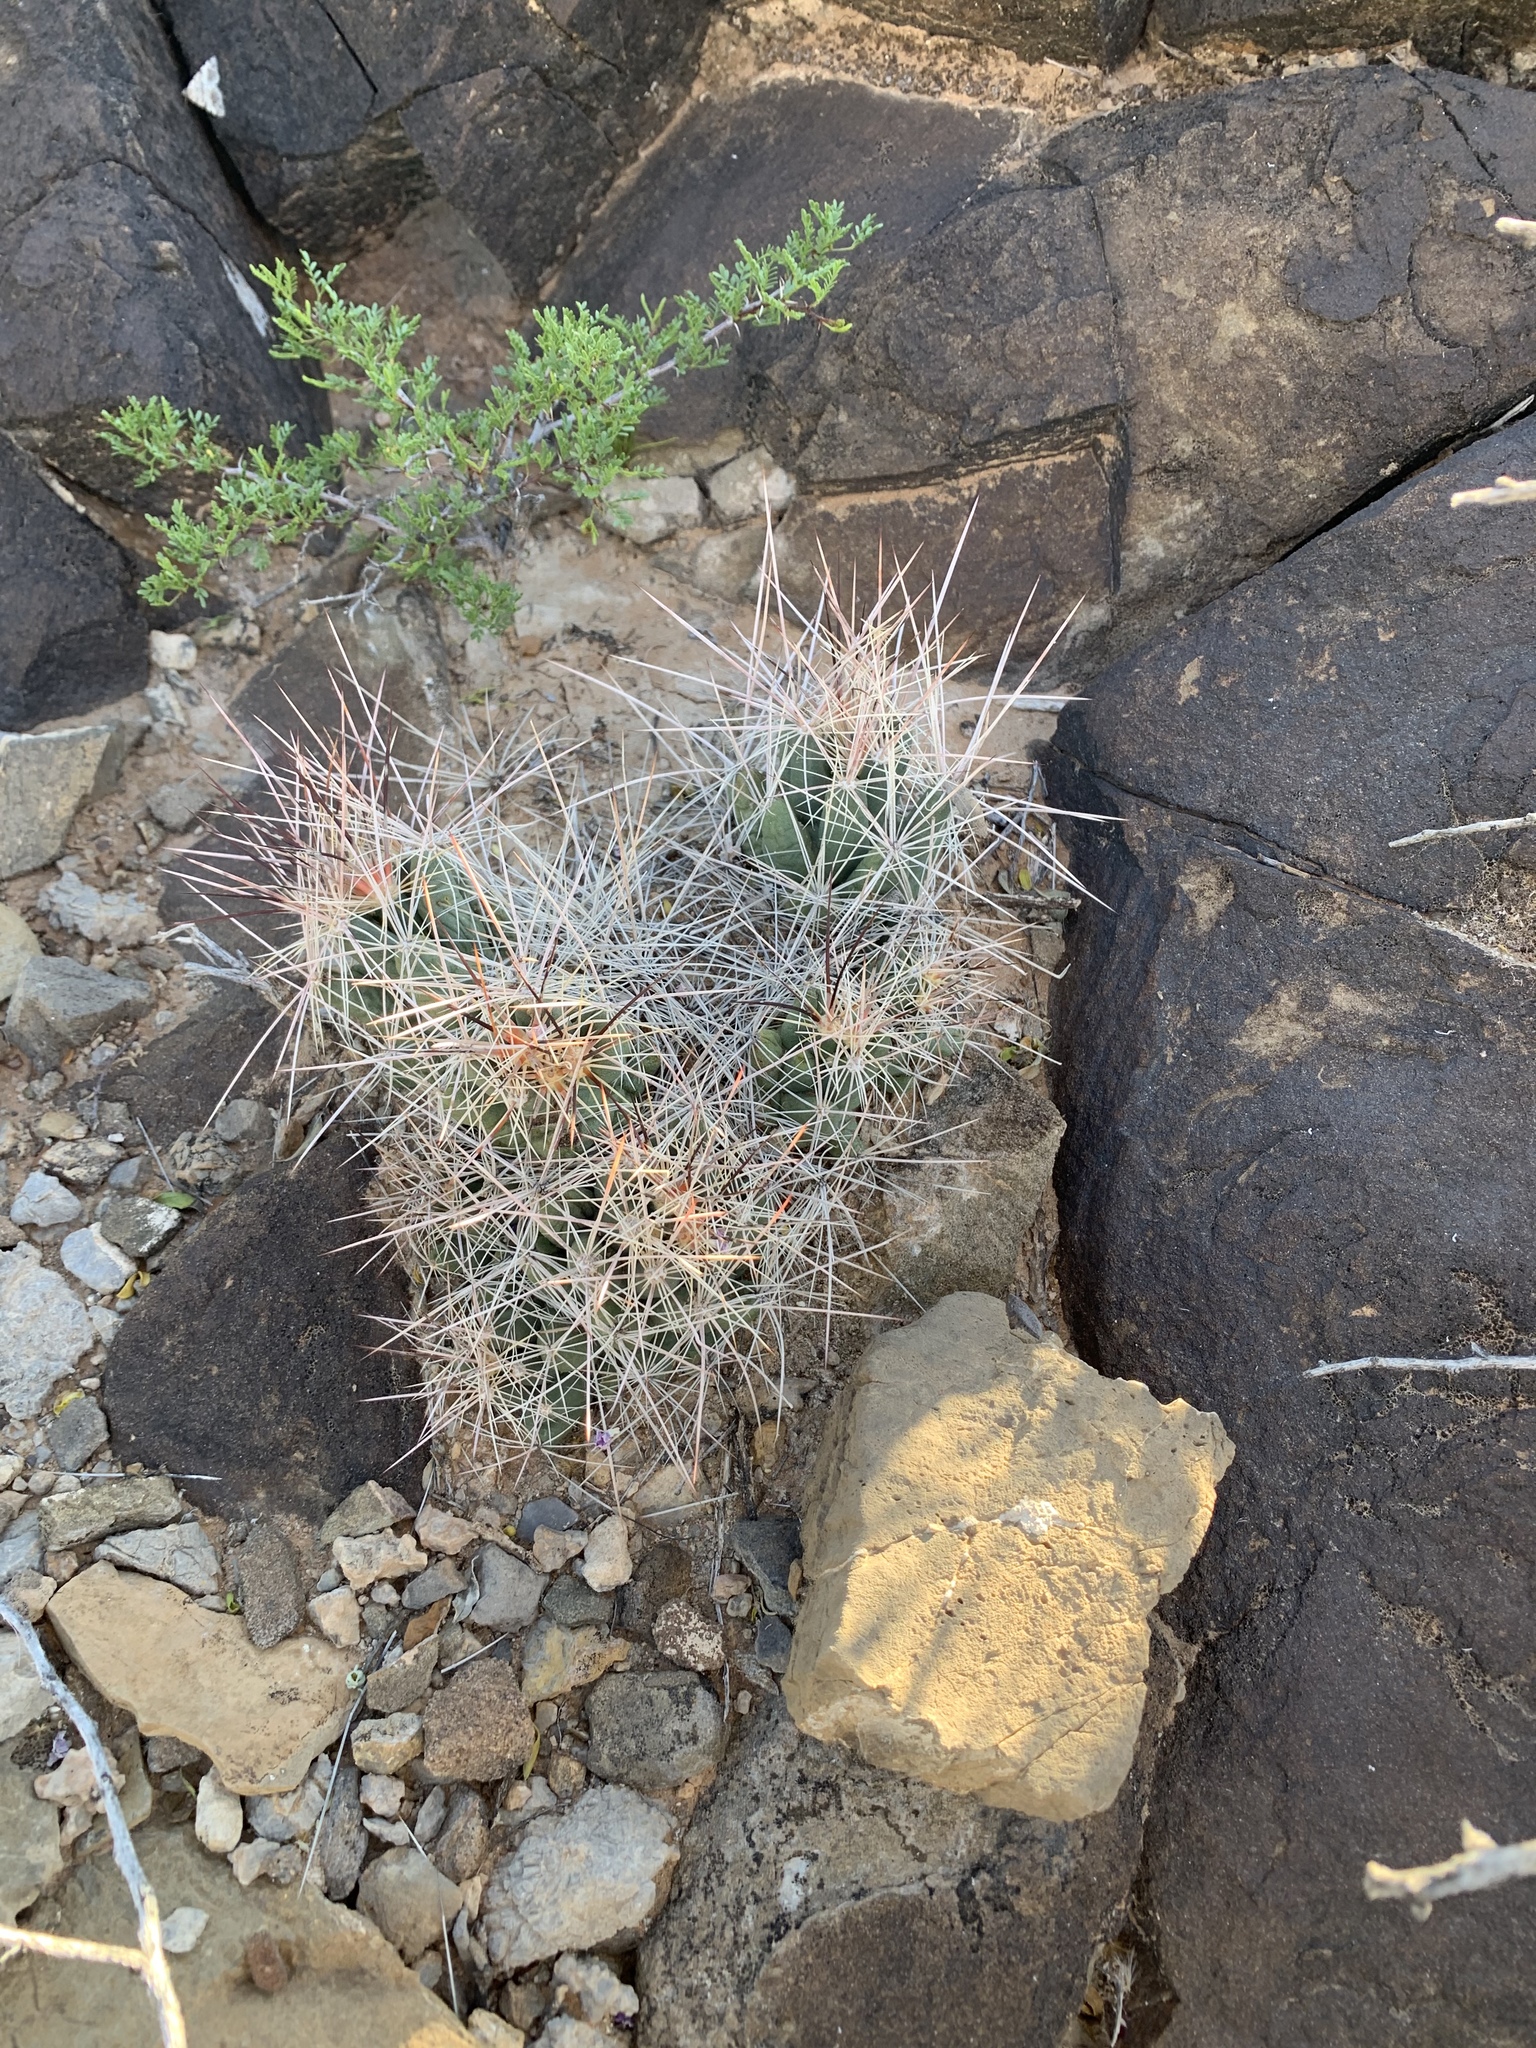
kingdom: Plantae
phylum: Tracheophyta
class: Magnoliopsida
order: Caryophyllales
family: Cactaceae
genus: Coryphantha
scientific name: Coryphantha macromeris
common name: Nipple beehive cactus
